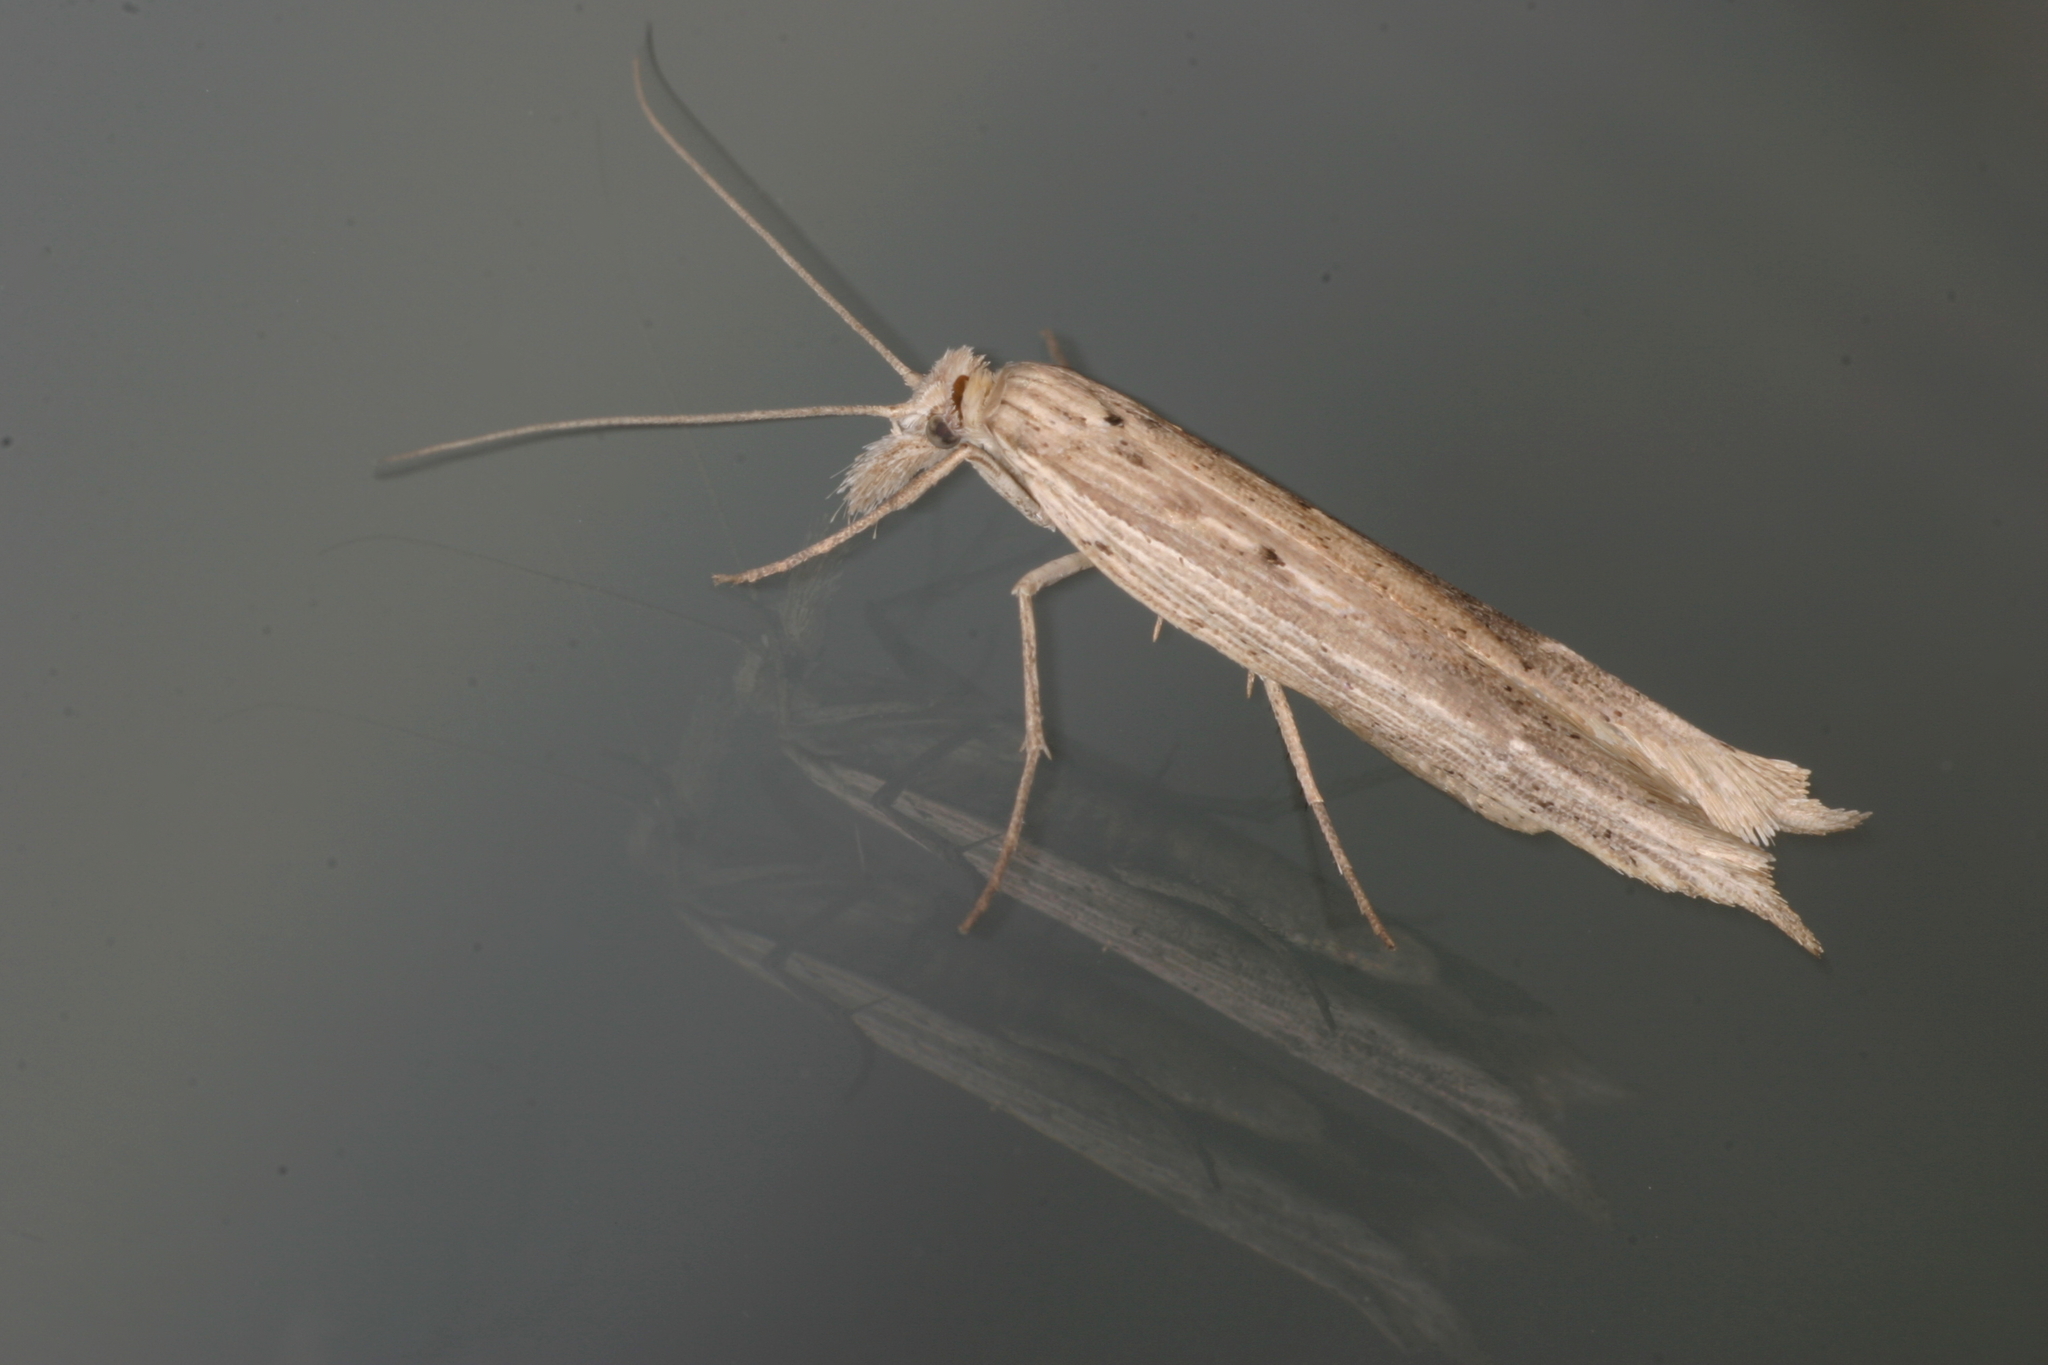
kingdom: Animalia
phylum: Arthropoda
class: Insecta
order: Lepidoptera
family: Ypsolophidae
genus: Ypsolopha
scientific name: Ypsolopha mucronella
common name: Spindle smudge
